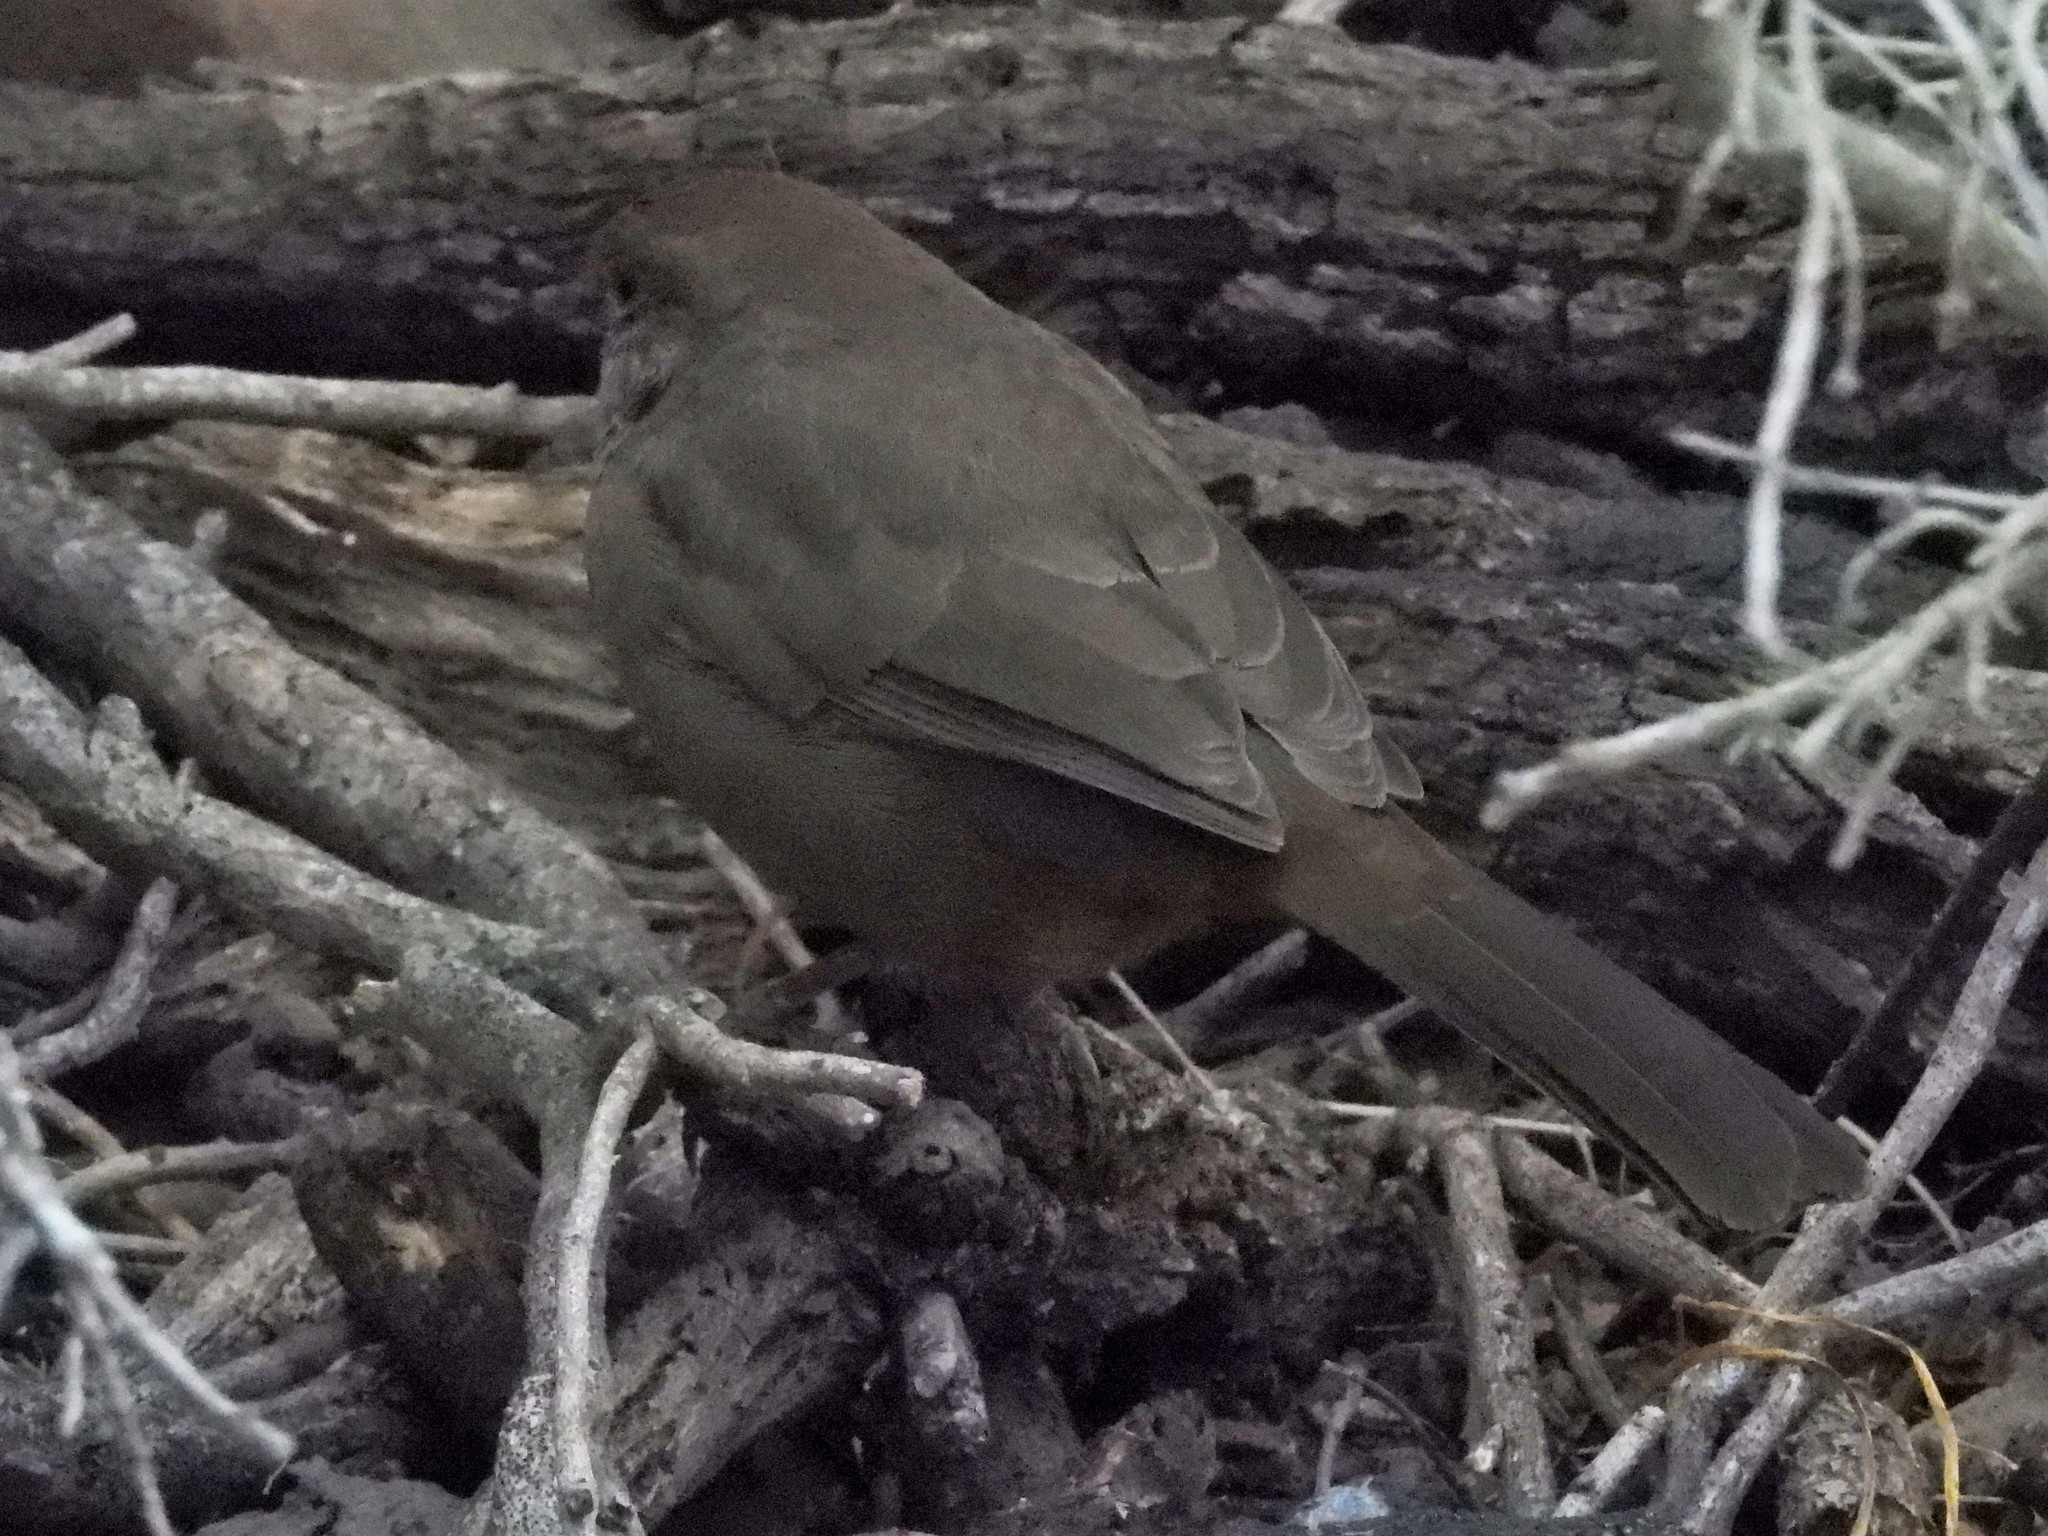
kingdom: Animalia
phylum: Chordata
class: Aves
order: Passeriformes
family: Passerellidae
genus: Melozone
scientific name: Melozone crissalis
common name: California towhee
